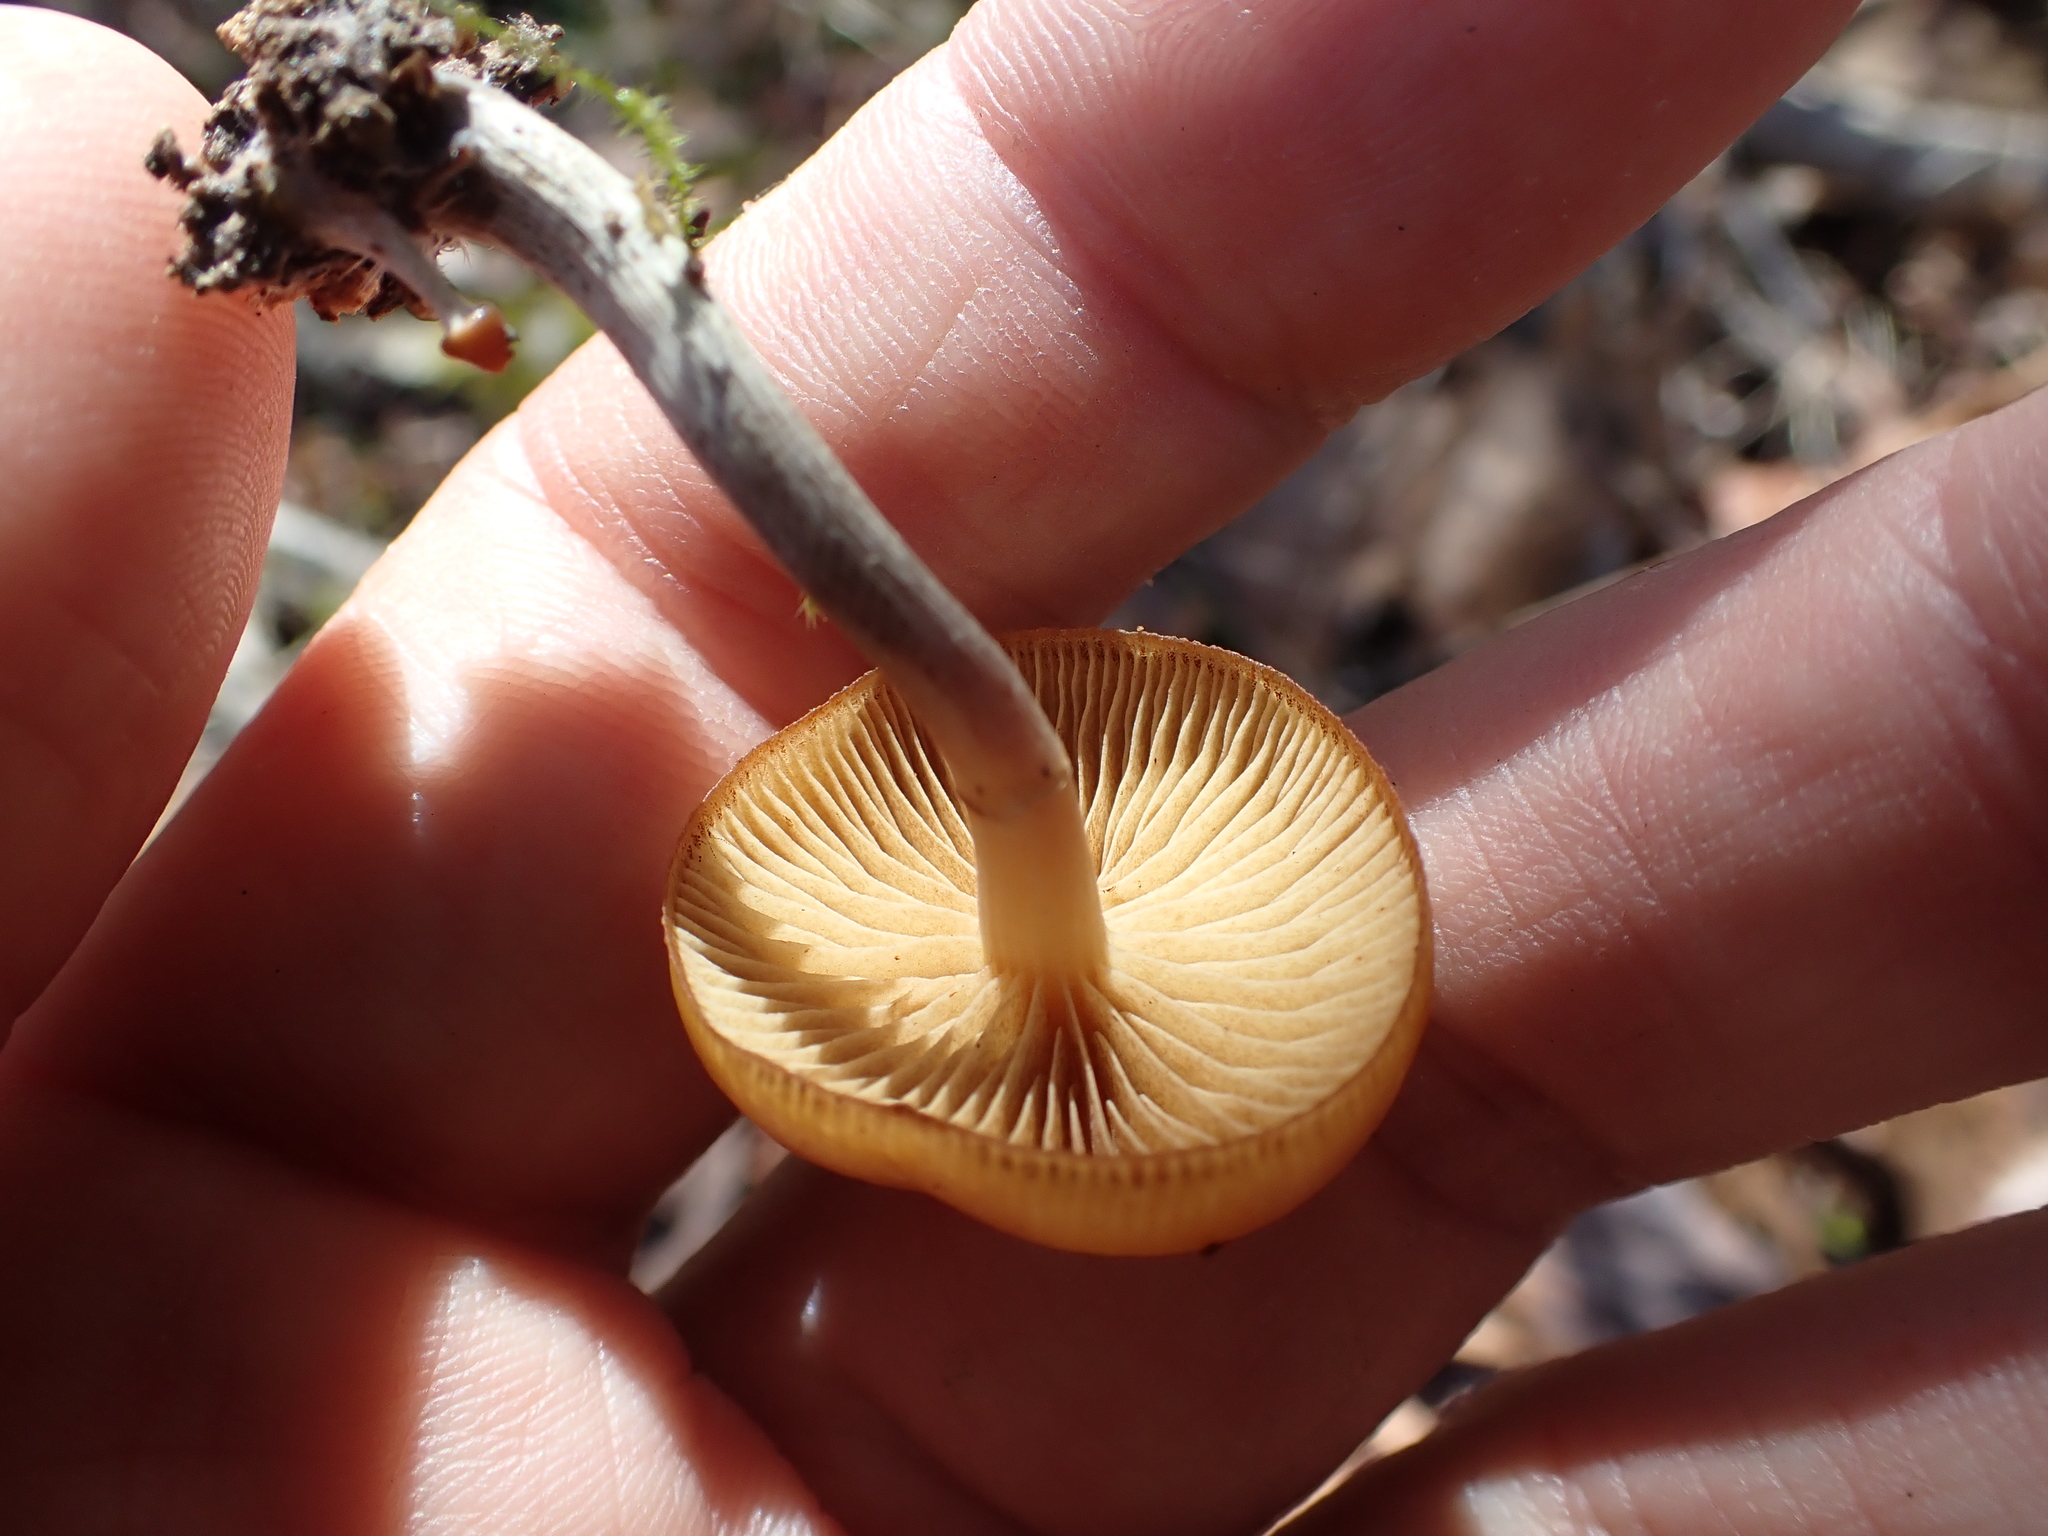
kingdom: Fungi
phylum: Basidiomycota
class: Agaricomycetes
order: Agaricales
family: Hymenogastraceae
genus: Galerina
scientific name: Galerina marginata
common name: Funeral bell
